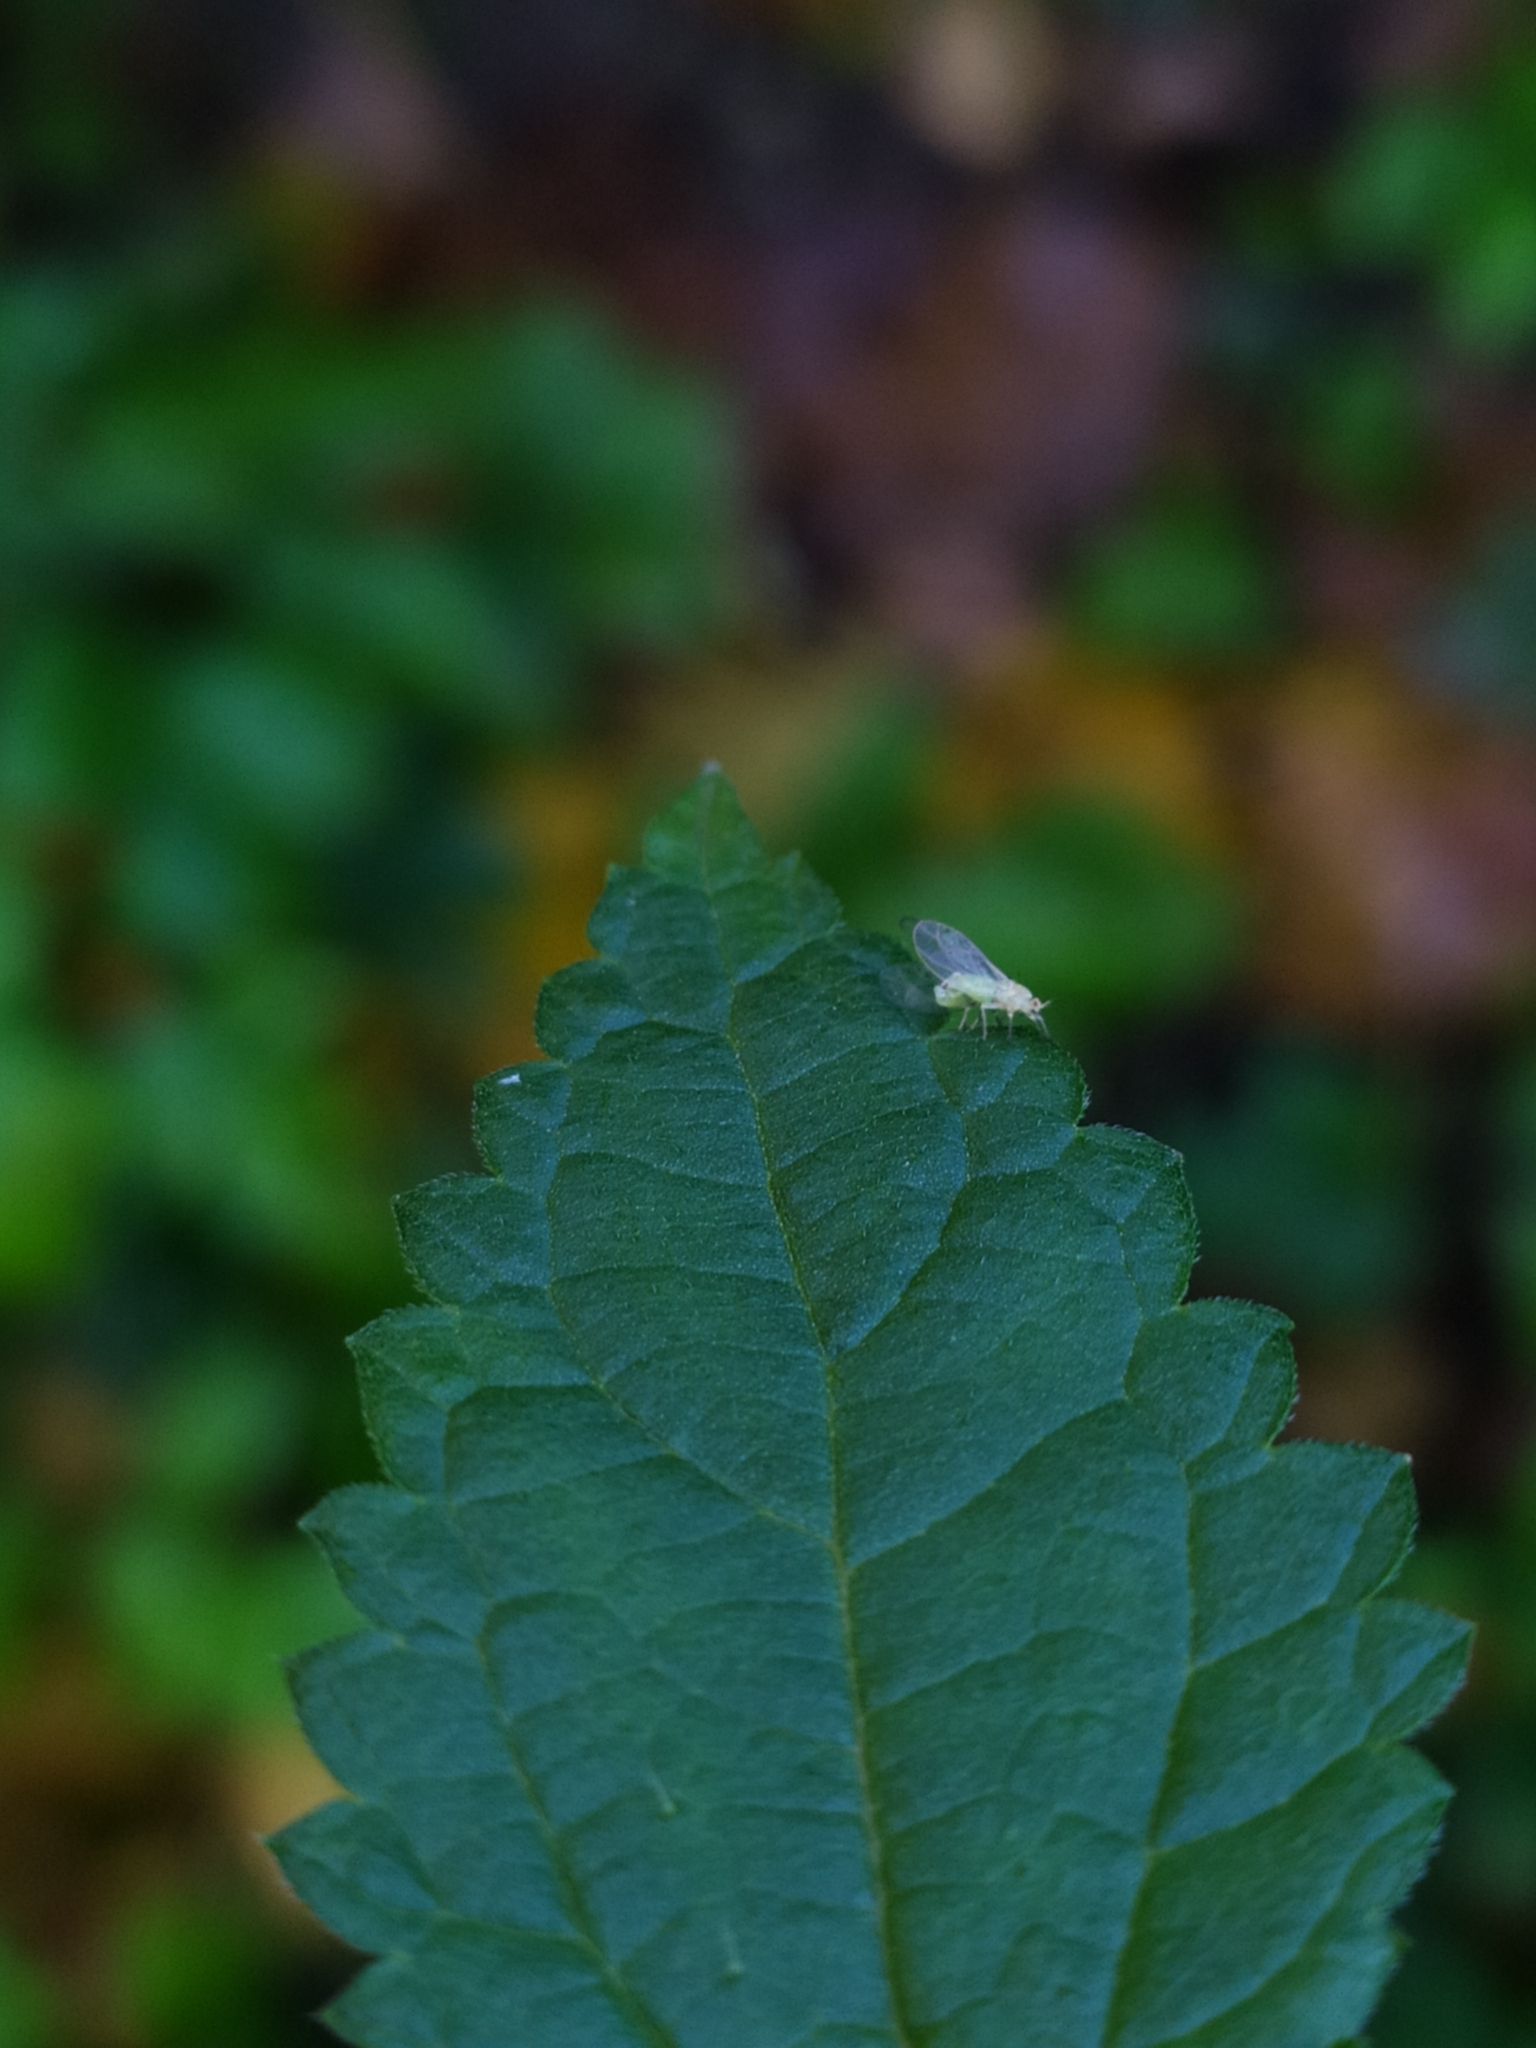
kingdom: Animalia
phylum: Arthropoda
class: Insecta
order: Hemiptera
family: Triozidae
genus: Trioza
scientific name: Trioza urticae
